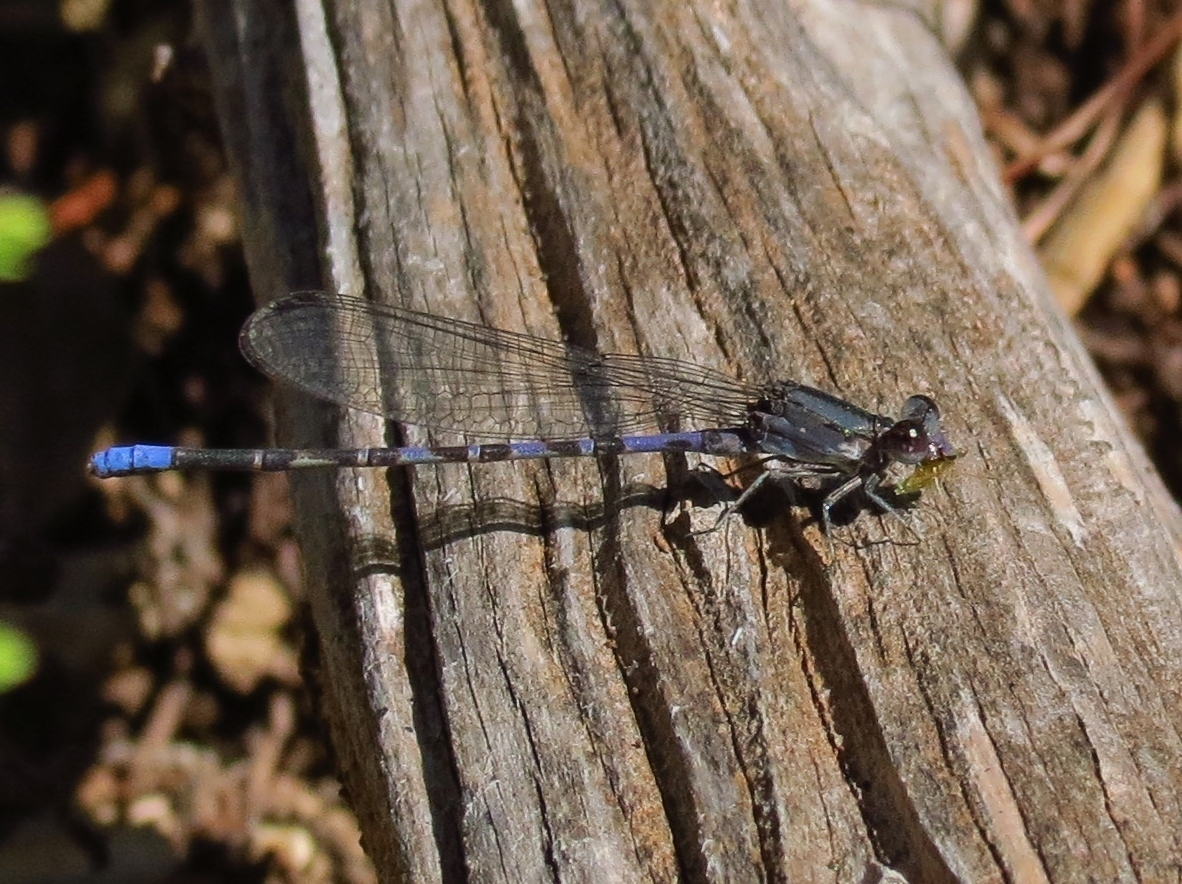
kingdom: Animalia
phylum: Arthropoda
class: Insecta
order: Odonata
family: Coenagrionidae
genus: Argia
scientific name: Argia immunda
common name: Kiowa dancer
